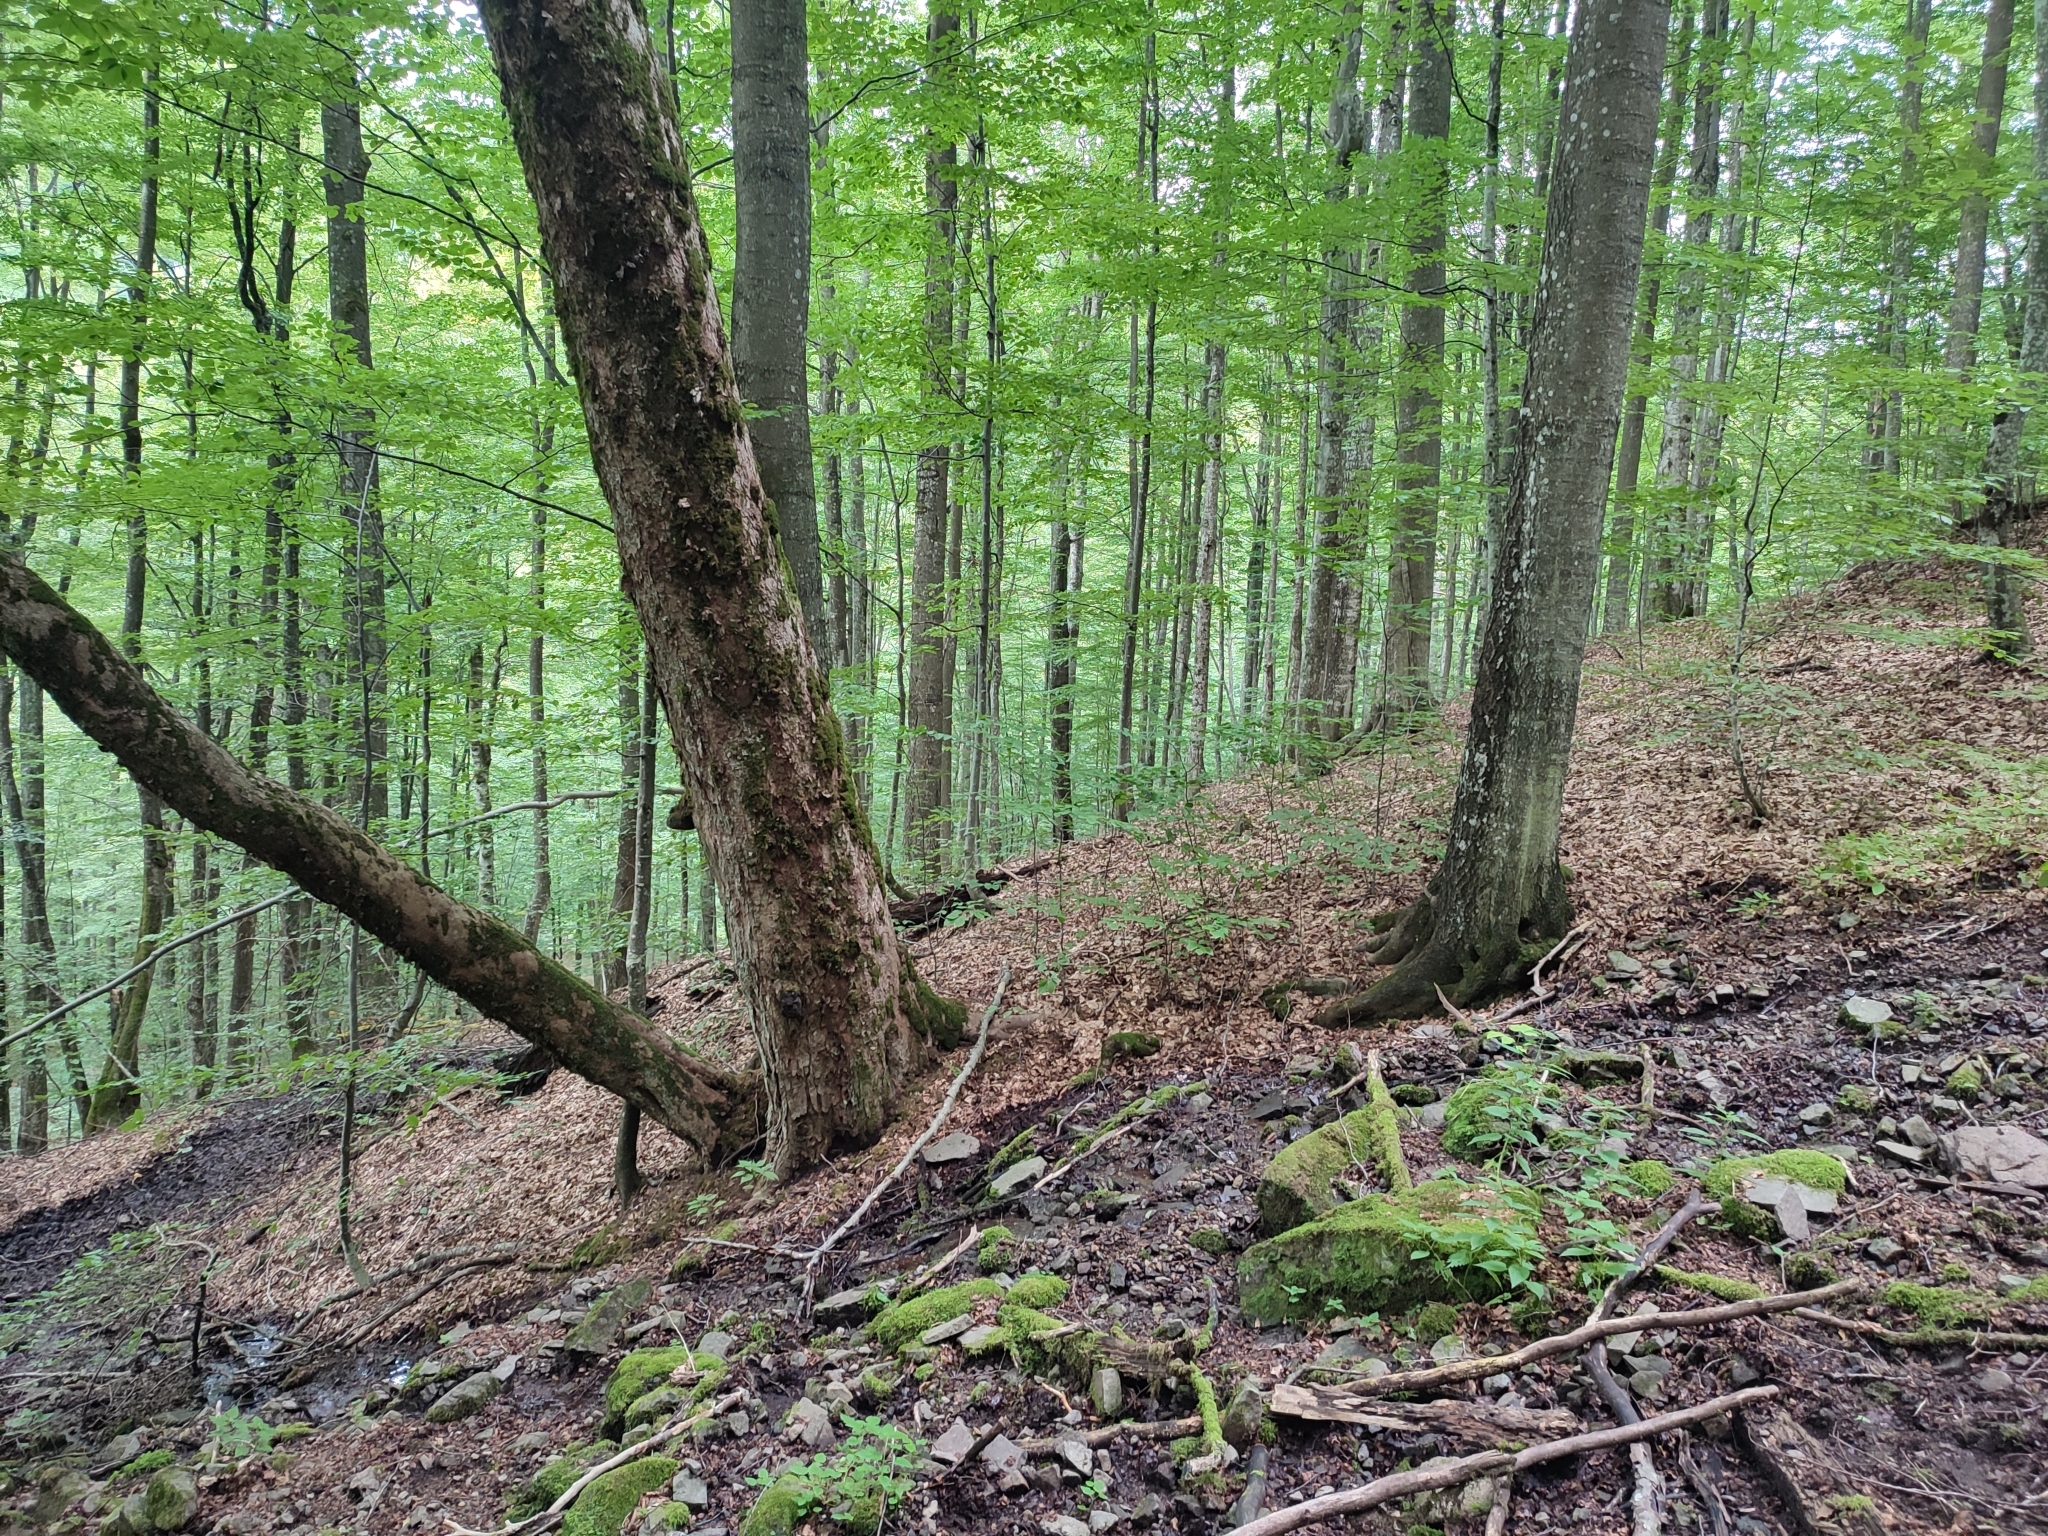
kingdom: Plantae
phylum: Tracheophyta
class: Magnoliopsida
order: Fagales
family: Fagaceae
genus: Fagus
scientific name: Fagus sylvatica
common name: Beech
